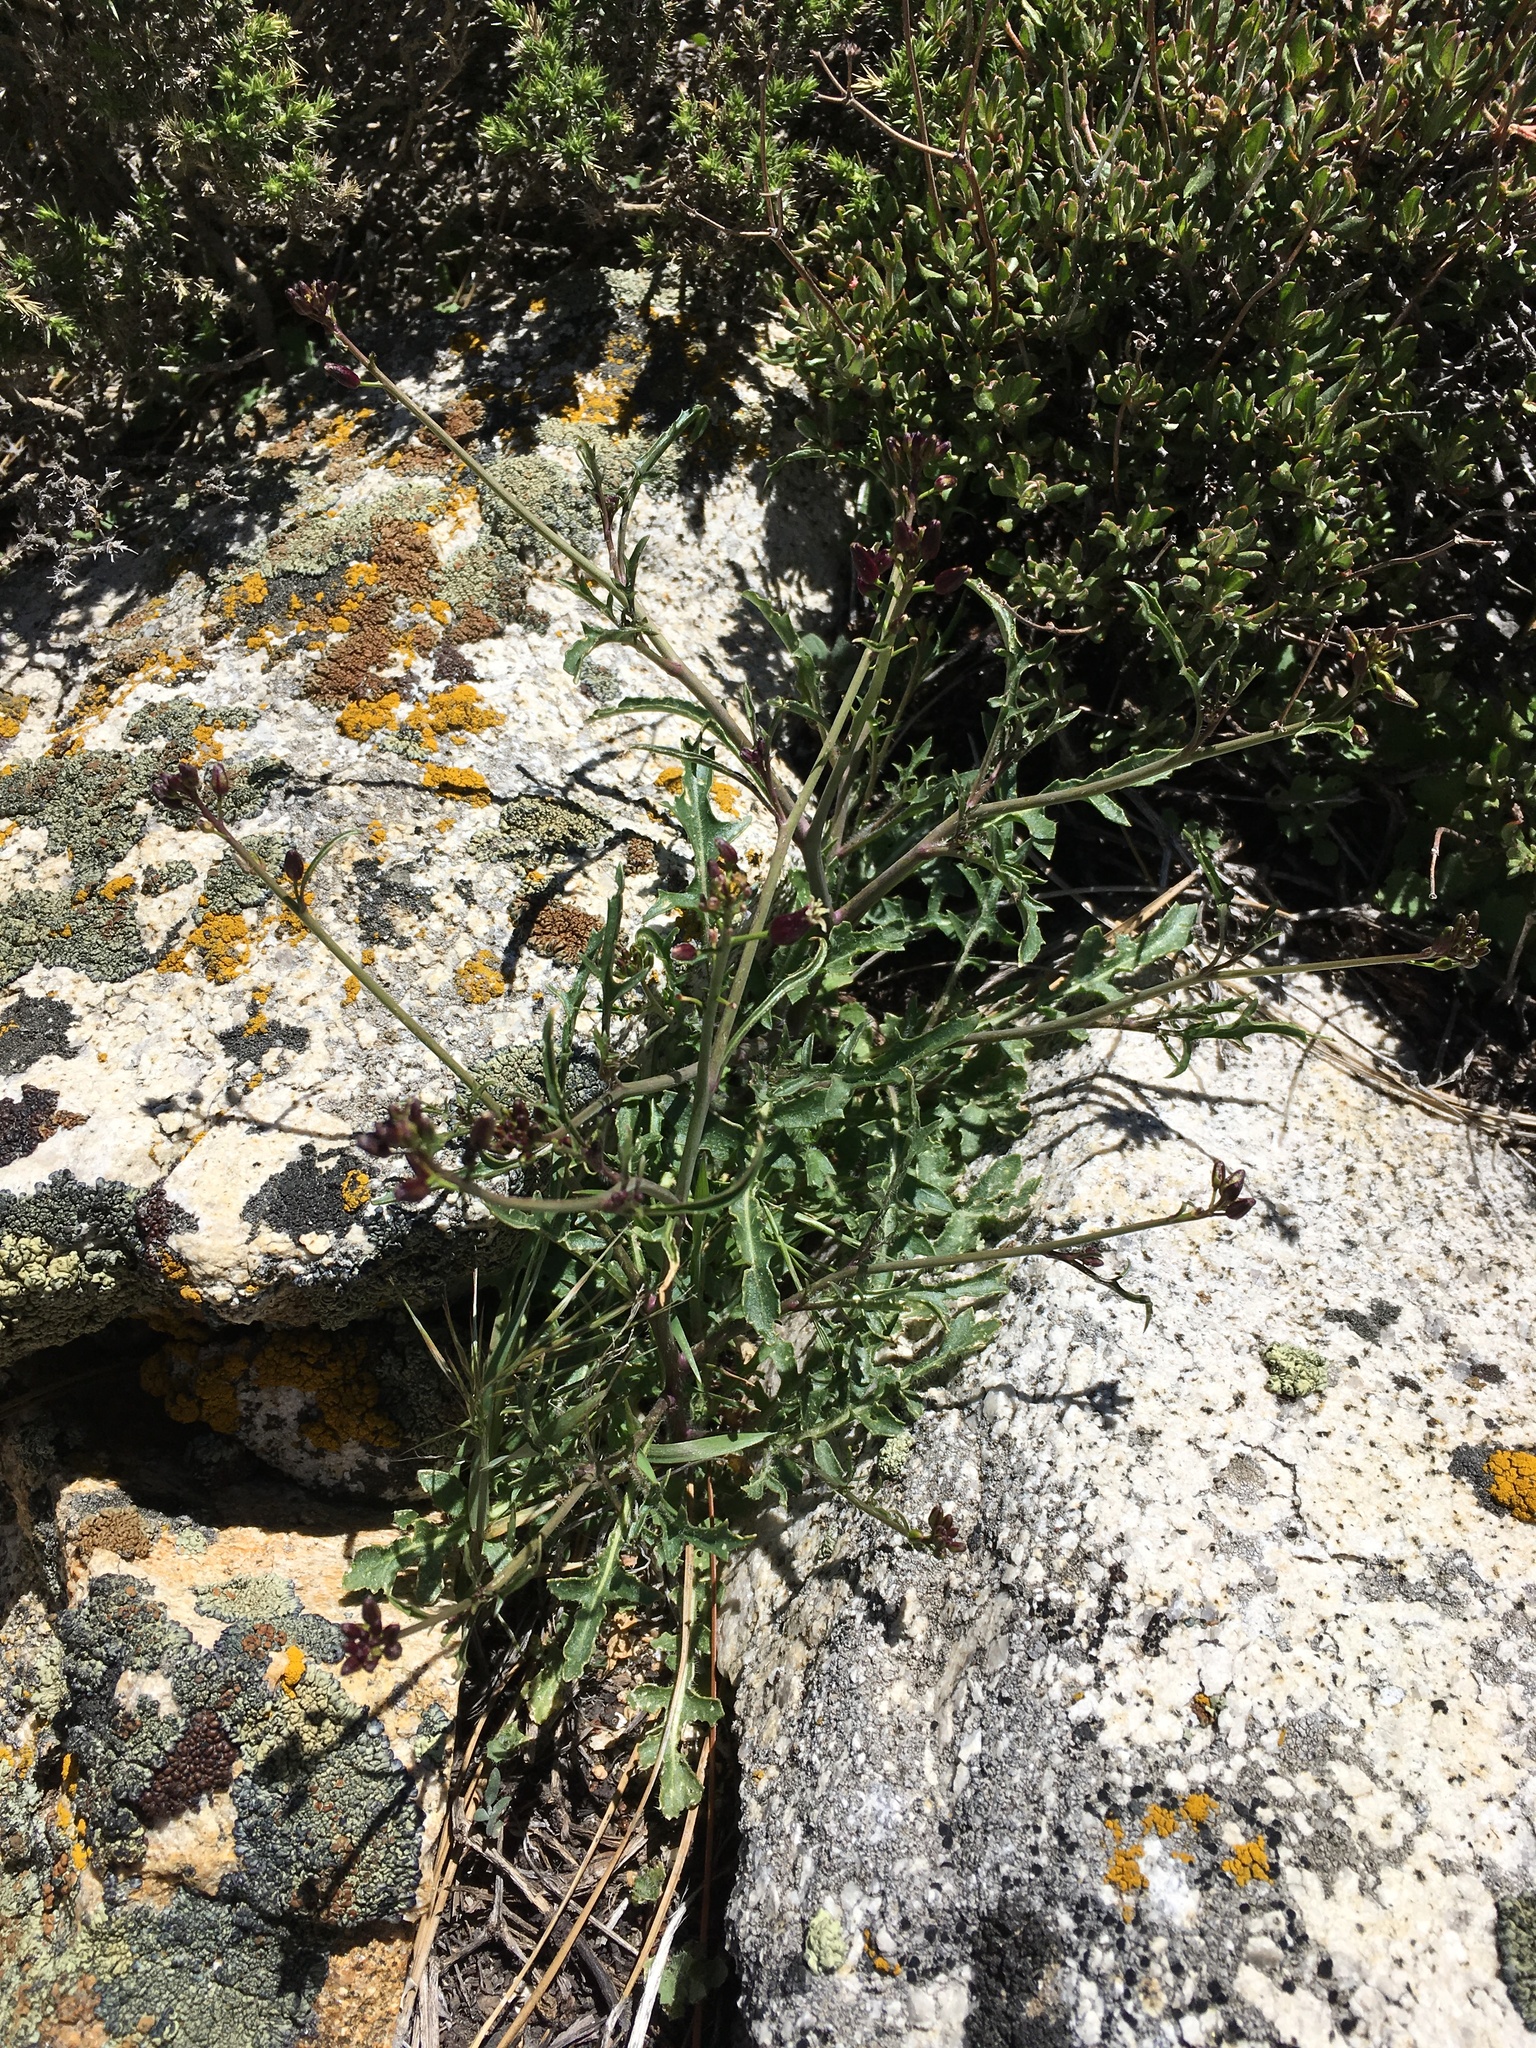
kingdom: Plantae
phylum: Tracheophyta
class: Magnoliopsida
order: Brassicales
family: Brassicaceae
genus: Streptanthus
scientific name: Streptanthus pilosus
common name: Chocolate drops
